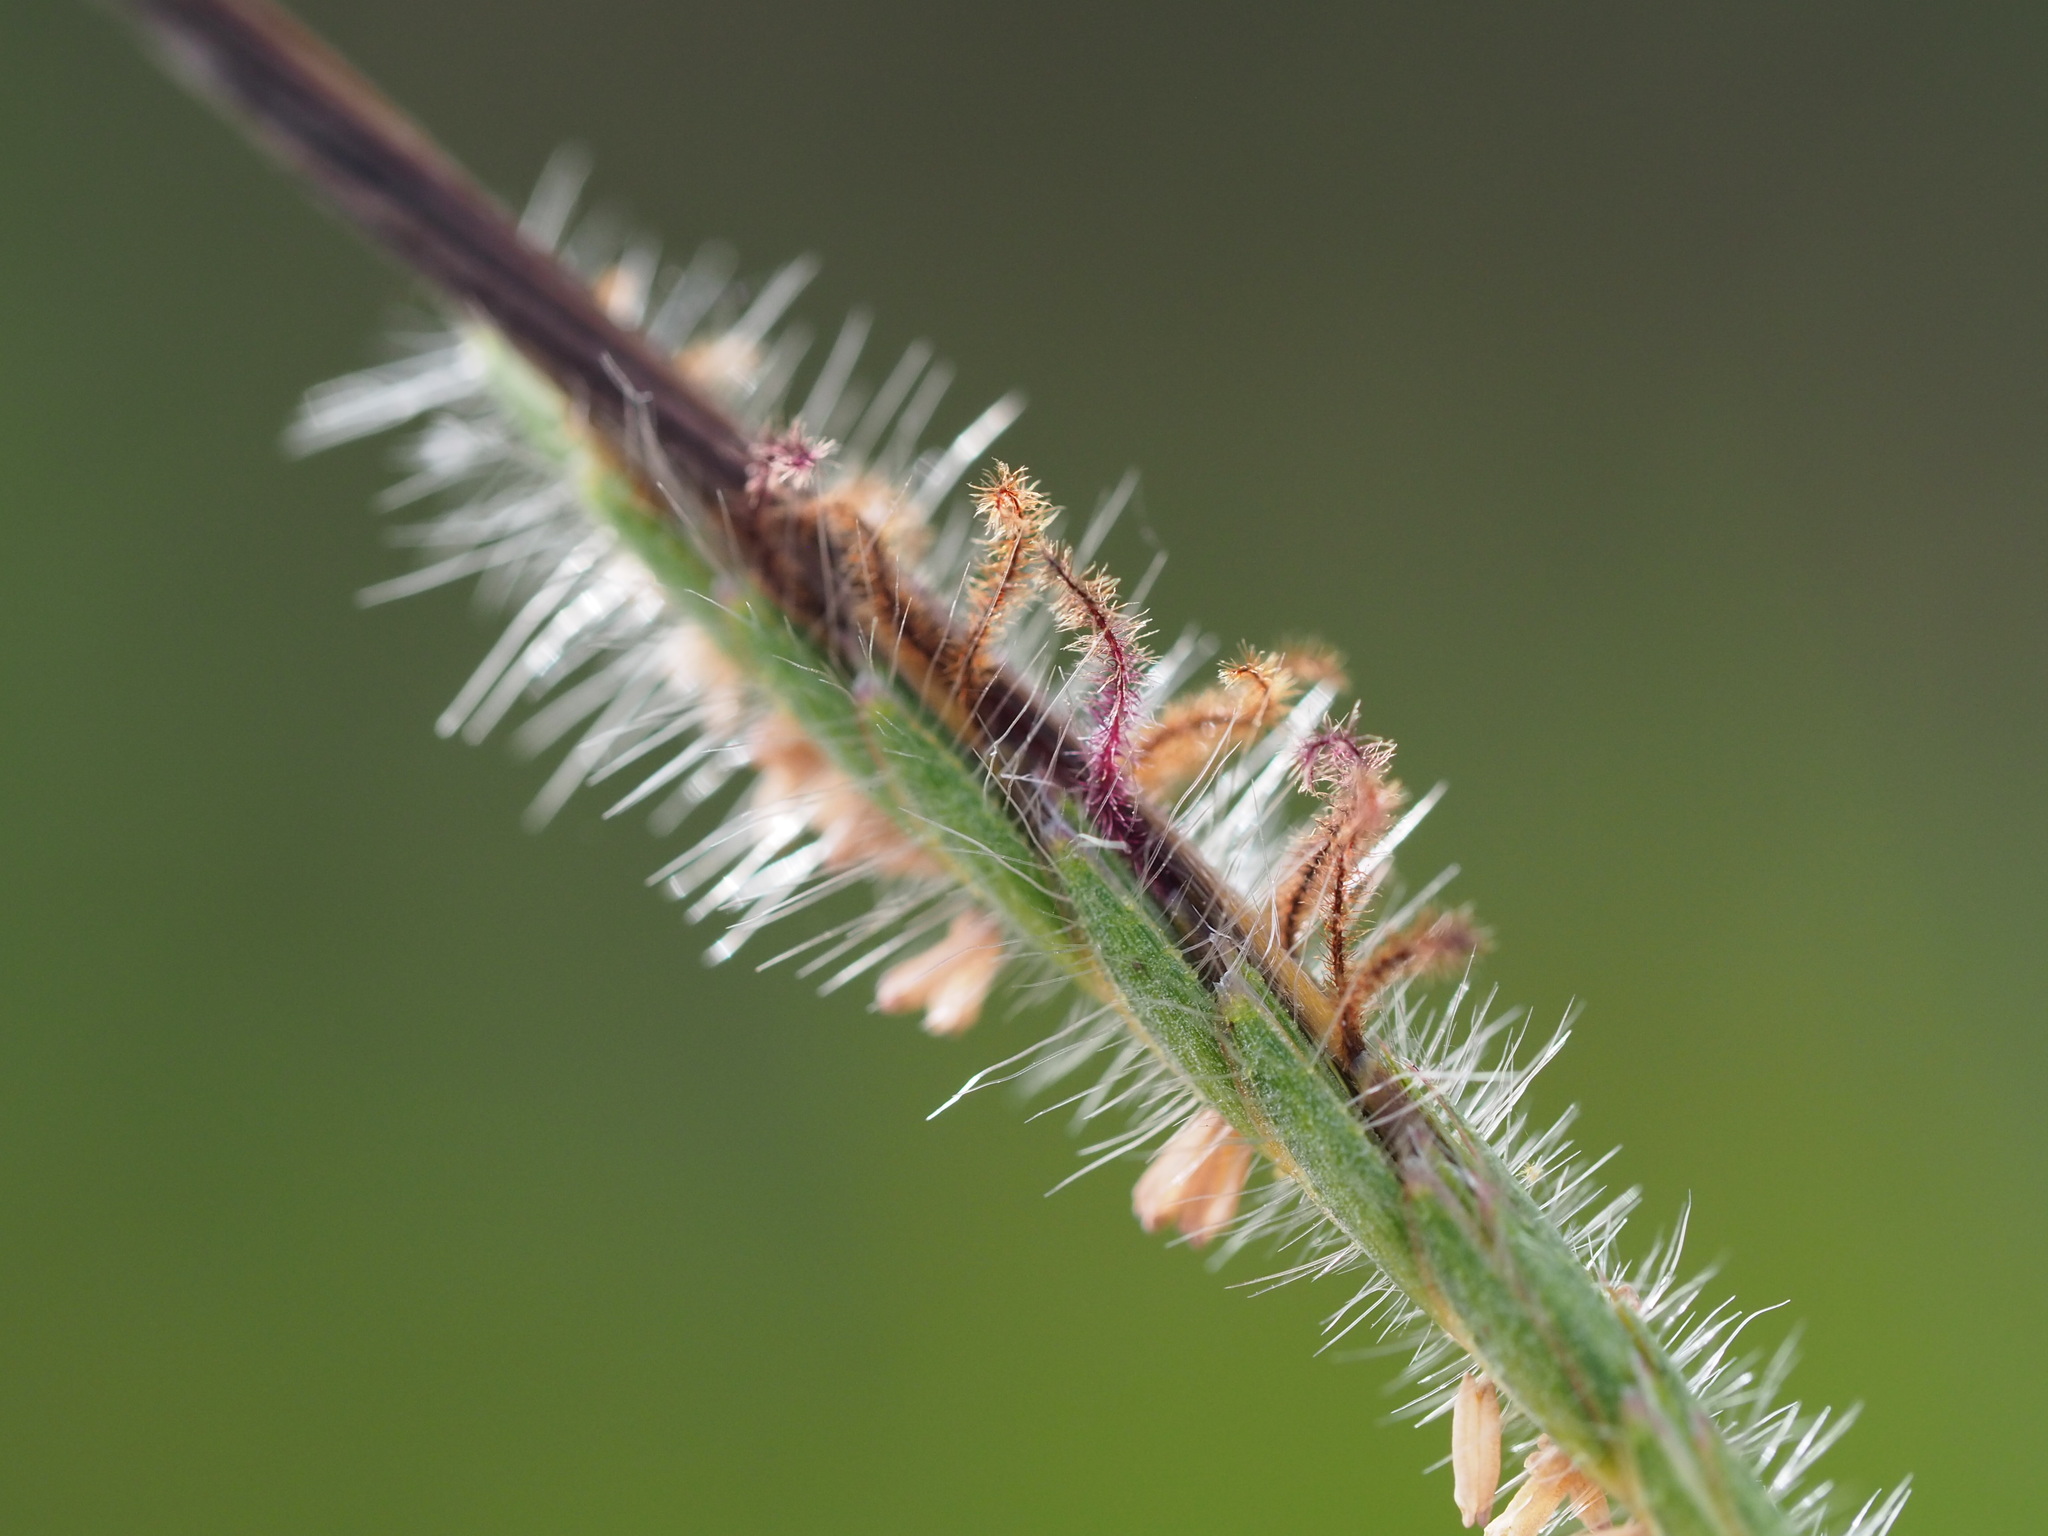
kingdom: Plantae
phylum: Tracheophyta
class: Liliopsida
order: Poales
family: Poaceae
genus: Heteropogon
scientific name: Heteropogon contortus
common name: Tanglehead
